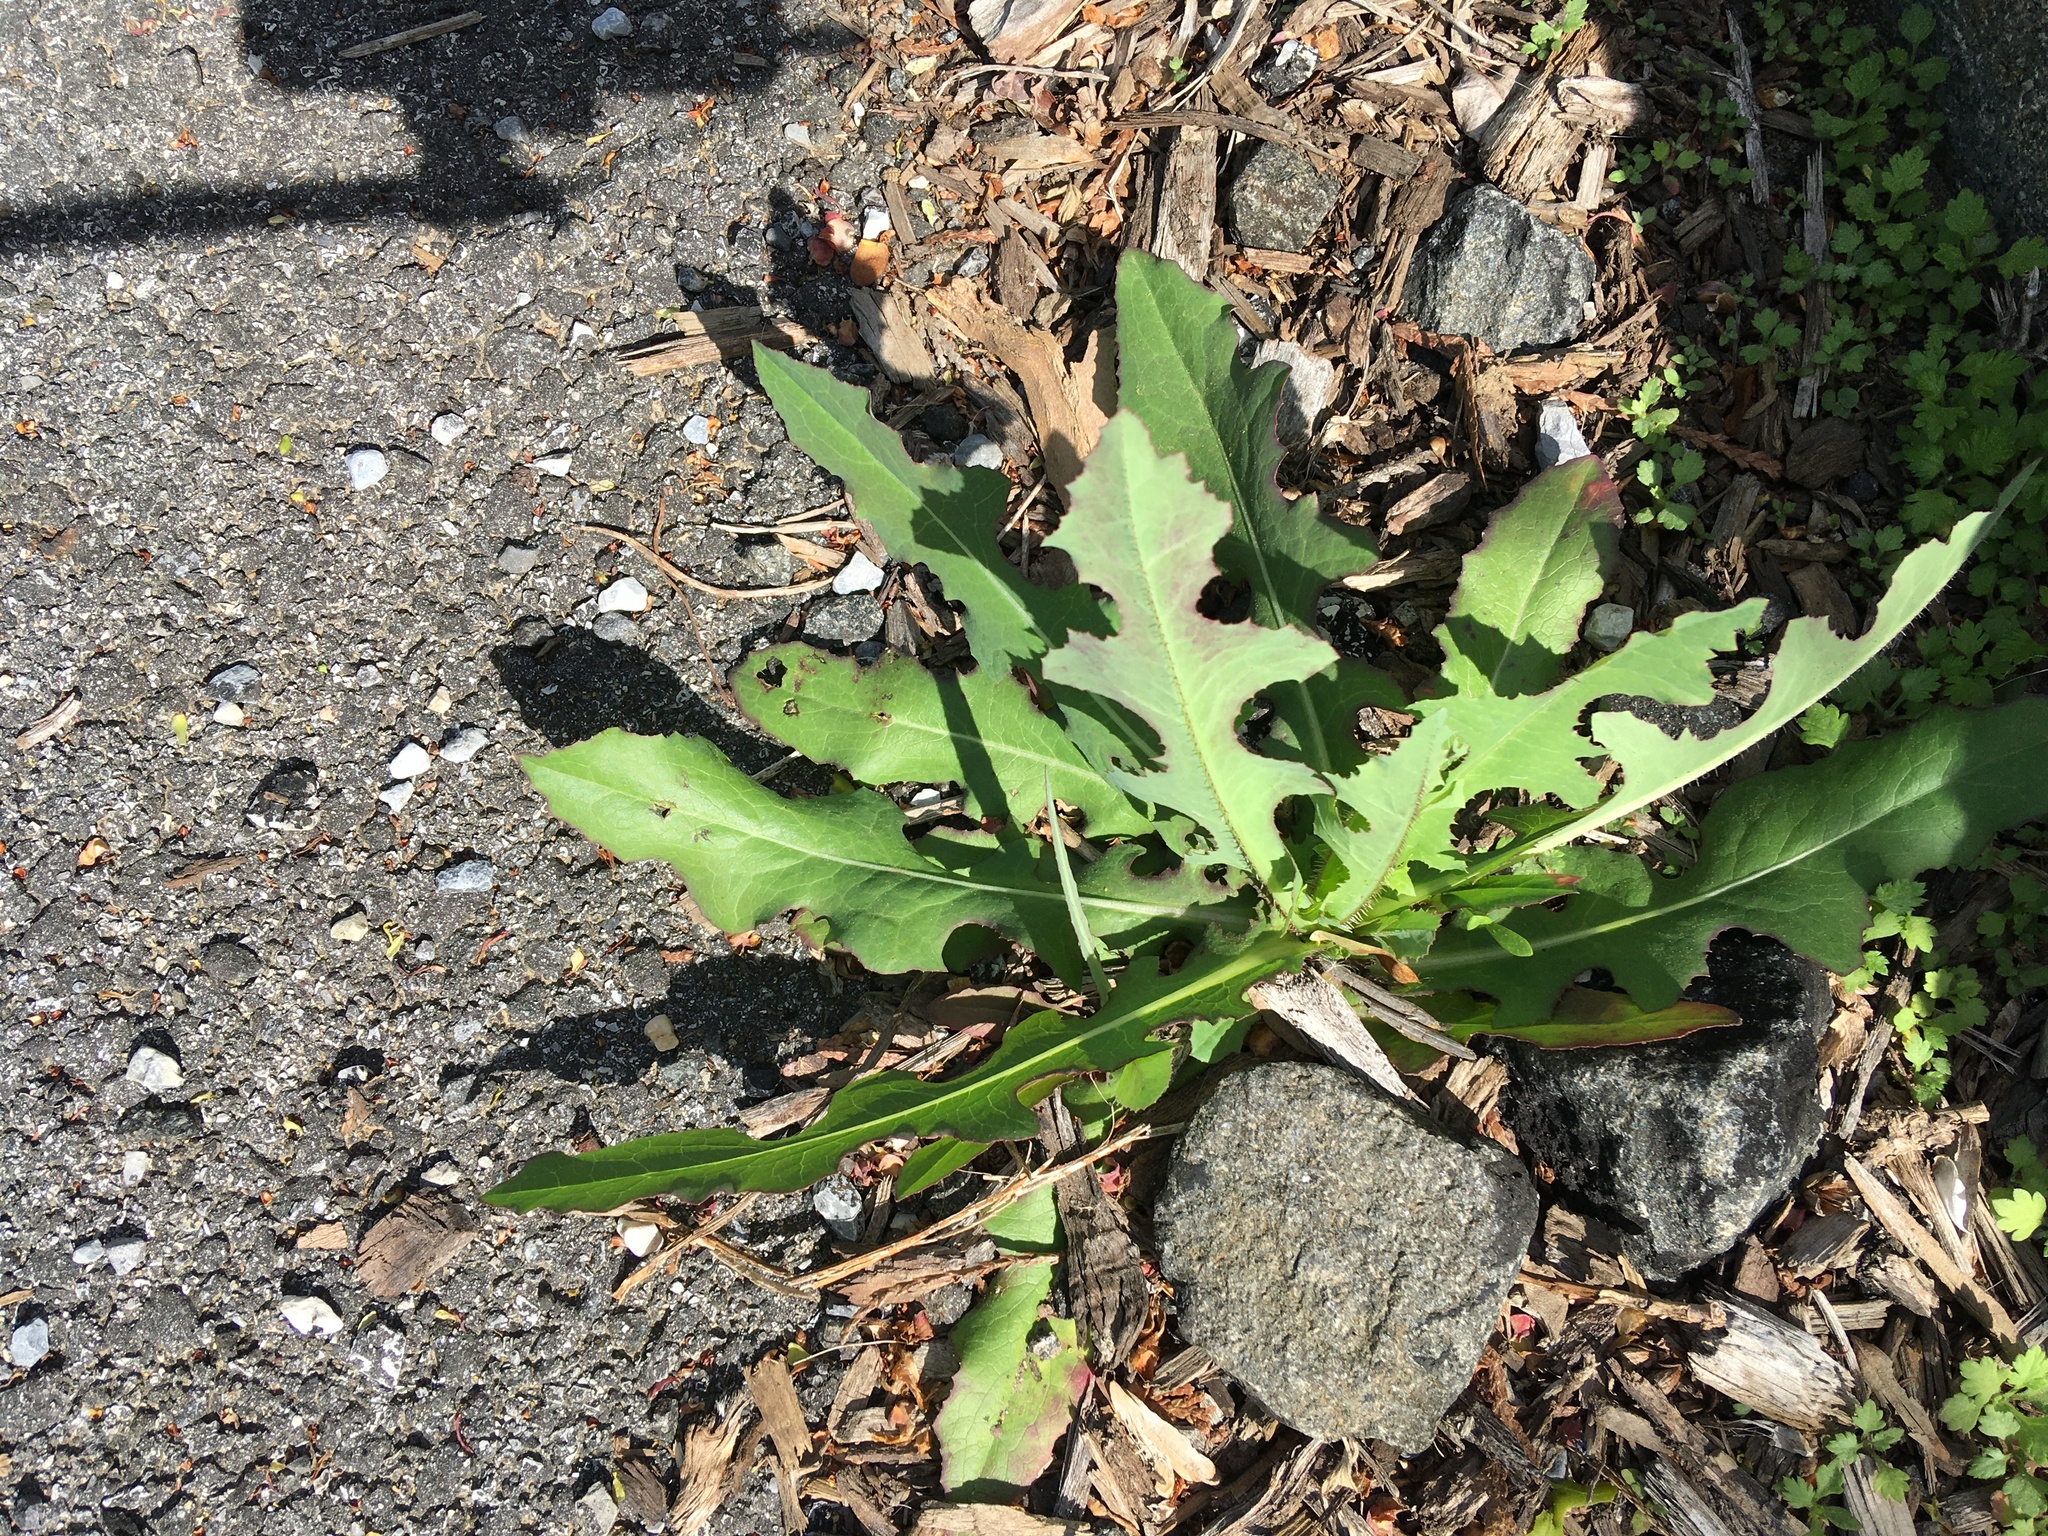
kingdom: Plantae
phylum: Tracheophyta
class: Magnoliopsida
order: Asterales
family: Asteraceae
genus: Lactuca
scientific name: Lactuca serriola
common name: Prickly lettuce
